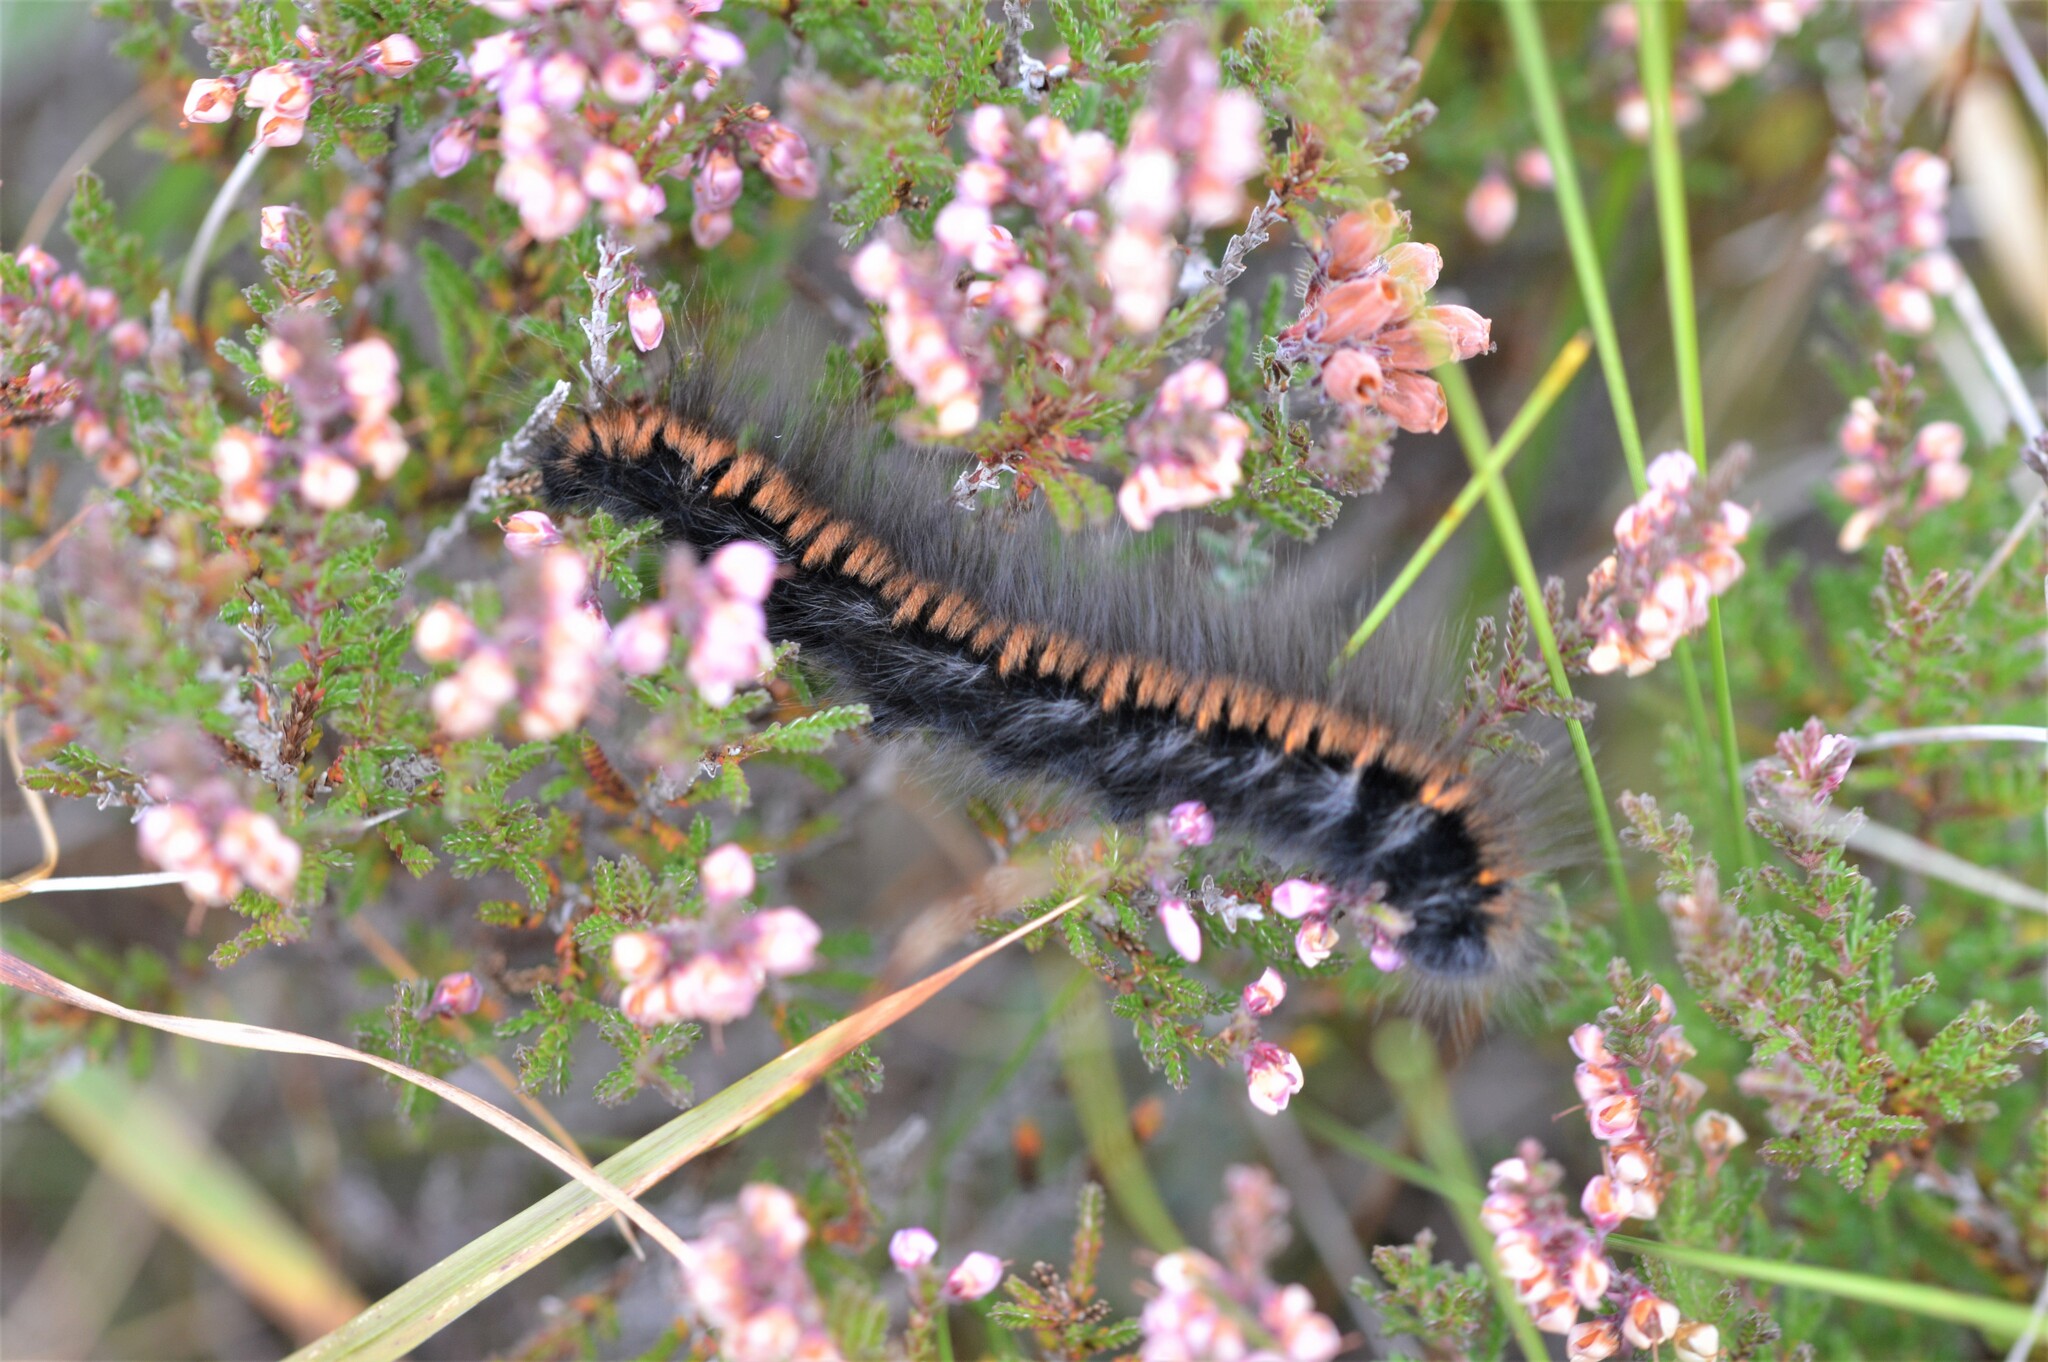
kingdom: Animalia
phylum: Arthropoda
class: Insecta
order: Lepidoptera
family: Lasiocampidae
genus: Macrothylacia
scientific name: Macrothylacia rubi
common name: Fox moth
